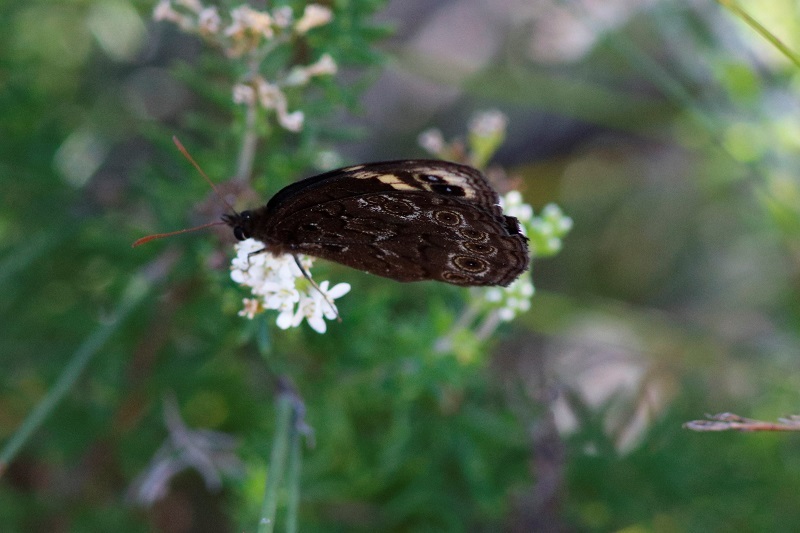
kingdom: Animalia
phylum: Arthropoda
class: Insecta
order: Lepidoptera
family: Nymphalidae
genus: Dira
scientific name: Dira clytus
